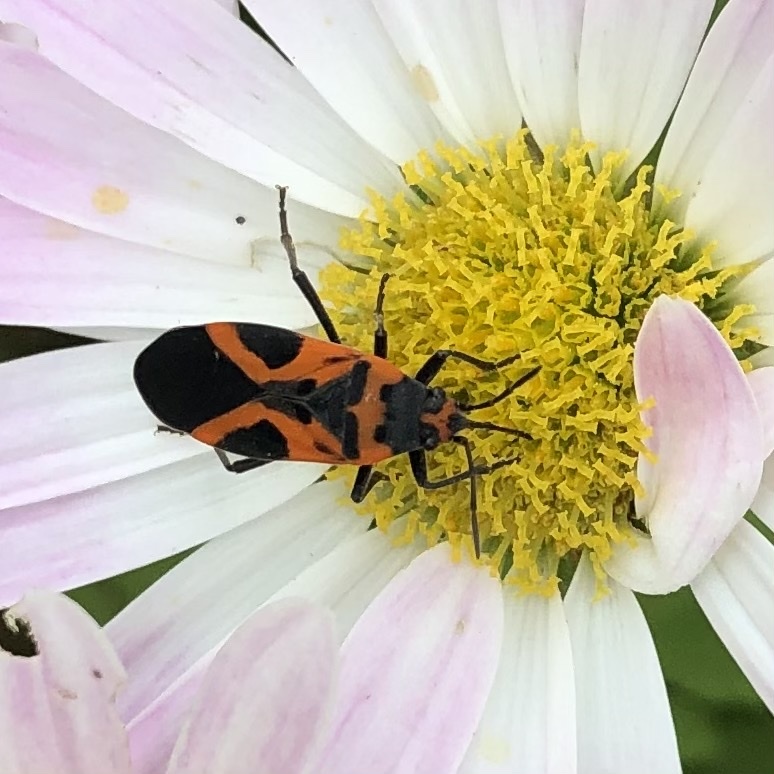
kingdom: Animalia
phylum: Arthropoda
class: Insecta
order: Hemiptera
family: Lygaeidae
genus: Lygaeus
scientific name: Lygaeus turcicus
